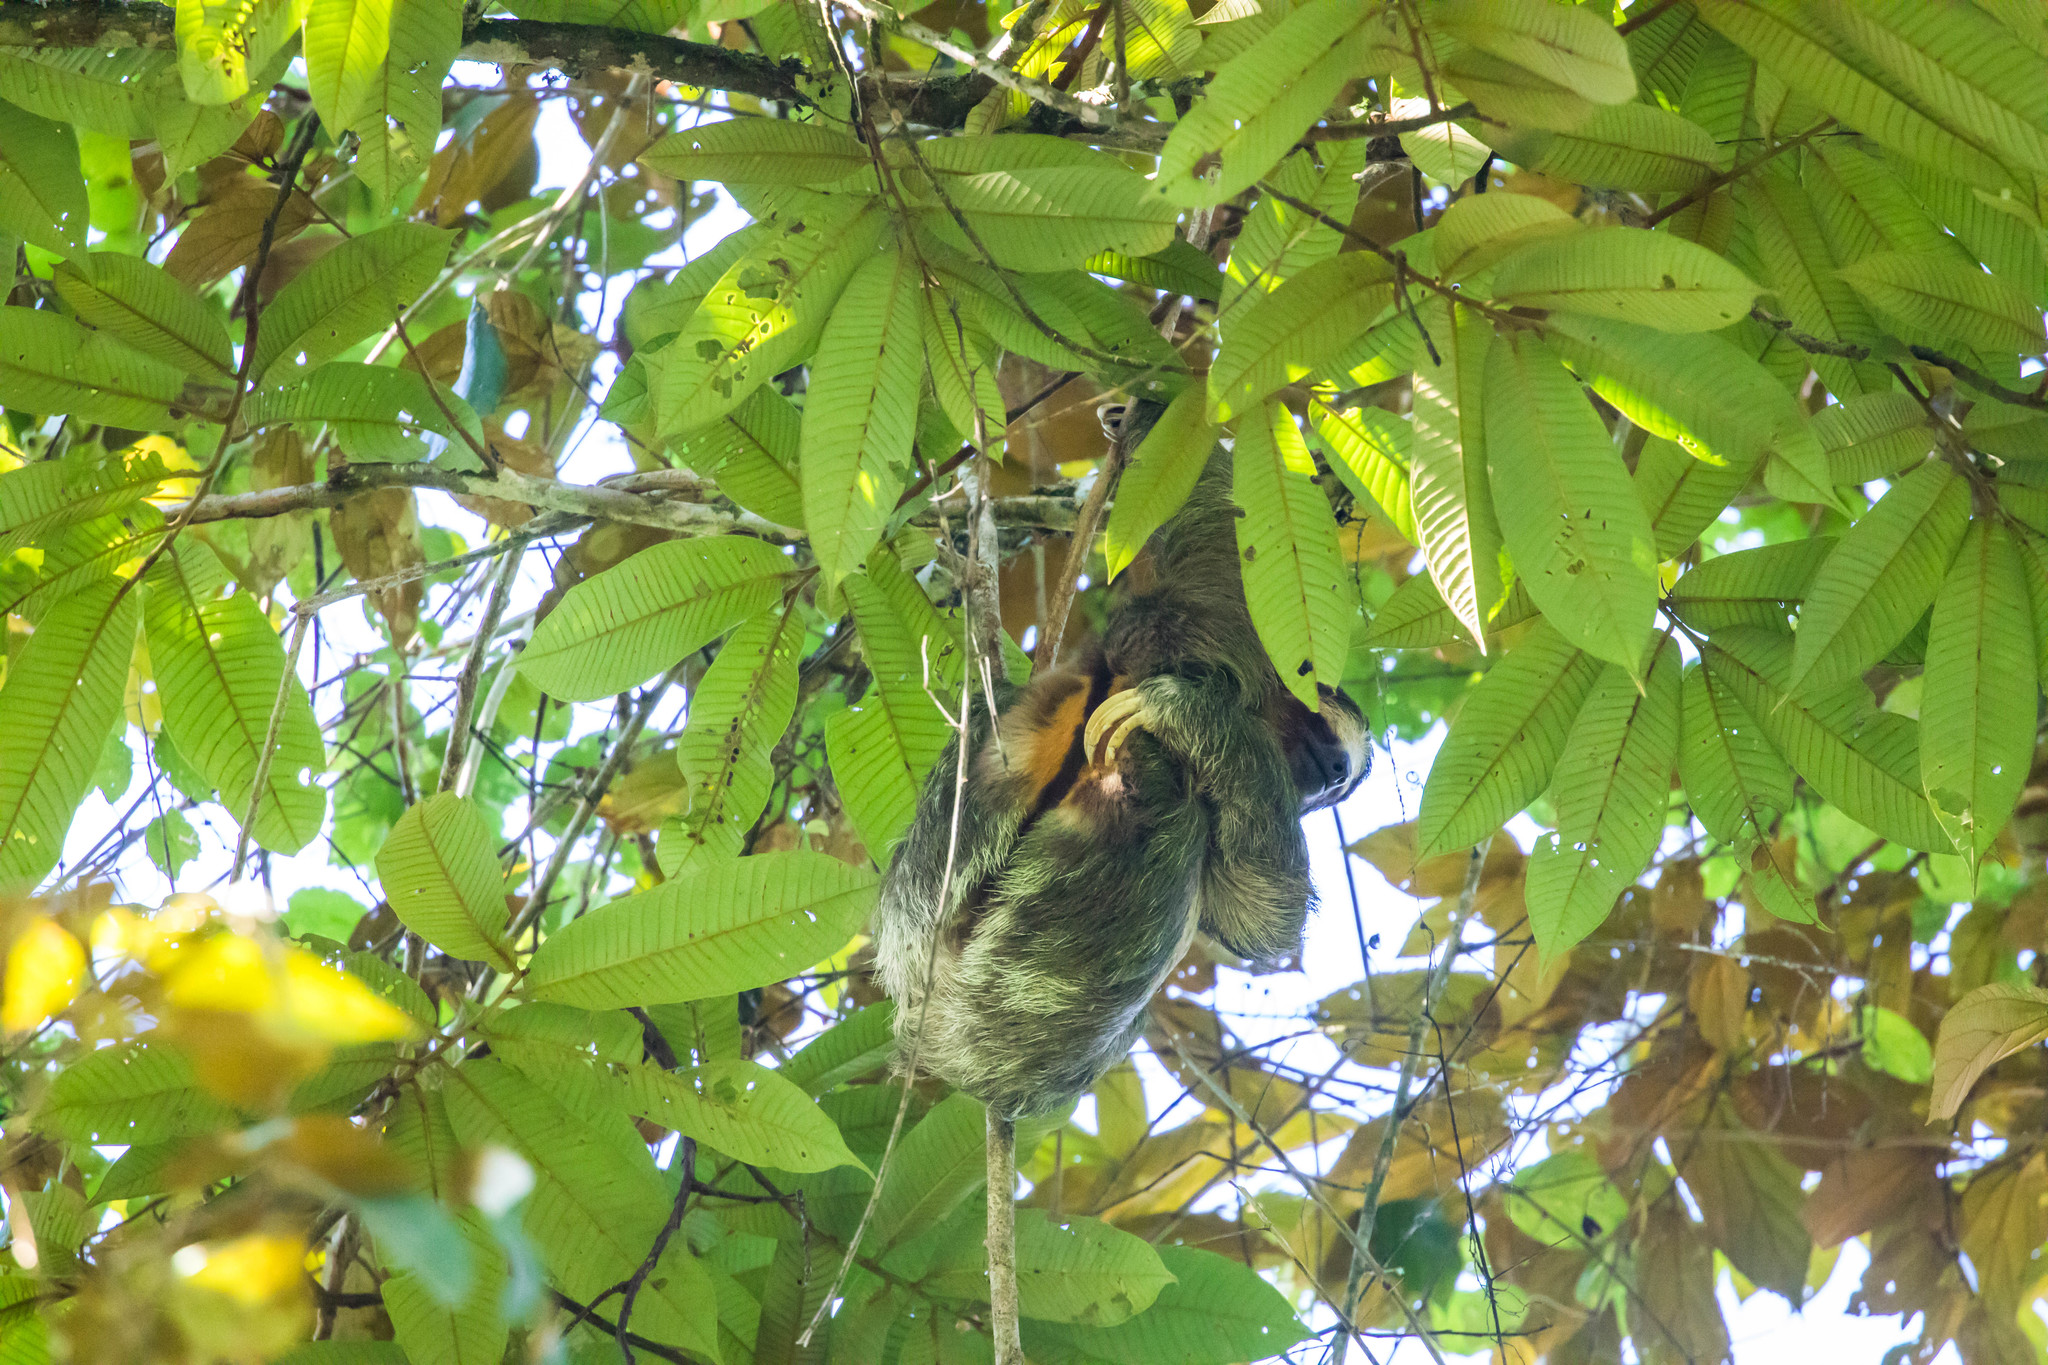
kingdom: Animalia
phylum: Chordata
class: Mammalia
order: Pilosa
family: Bradypodidae
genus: Bradypus
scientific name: Bradypus variegatus
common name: Brown-throated three-toed sloth
